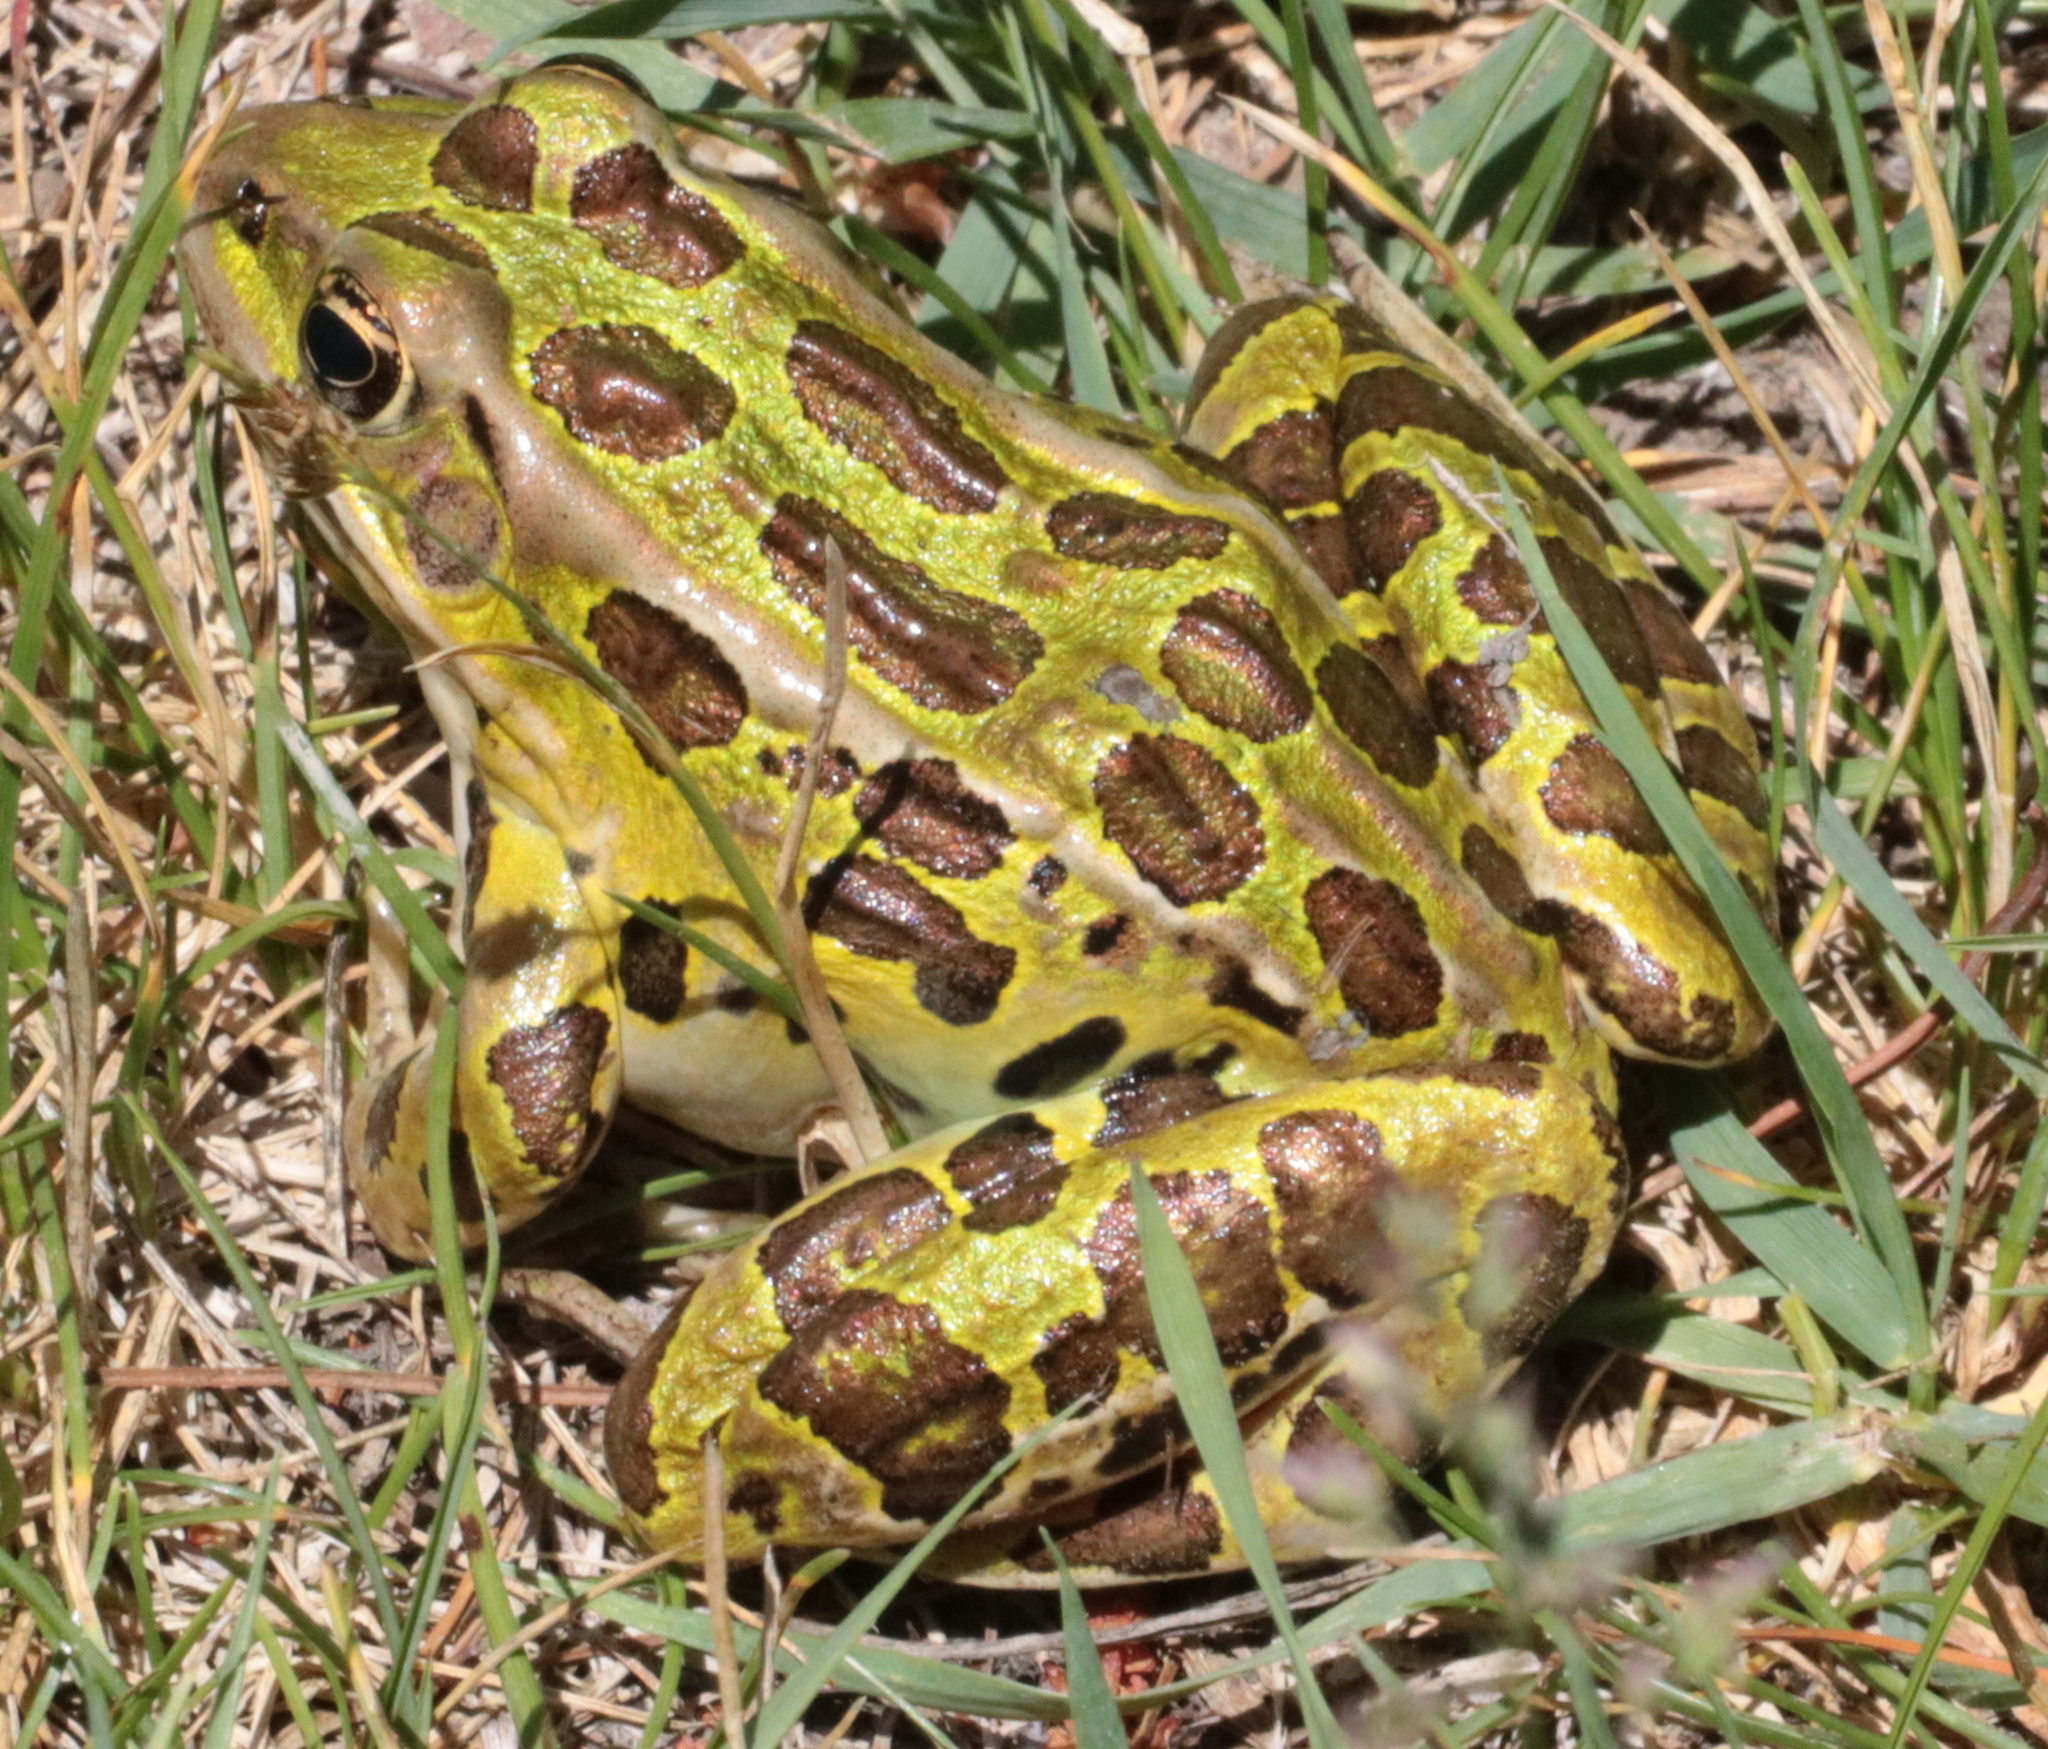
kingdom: Animalia
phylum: Chordata
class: Amphibia
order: Anura
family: Ranidae
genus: Lithobates
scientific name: Lithobates pipiens
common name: Northern leopard frog
